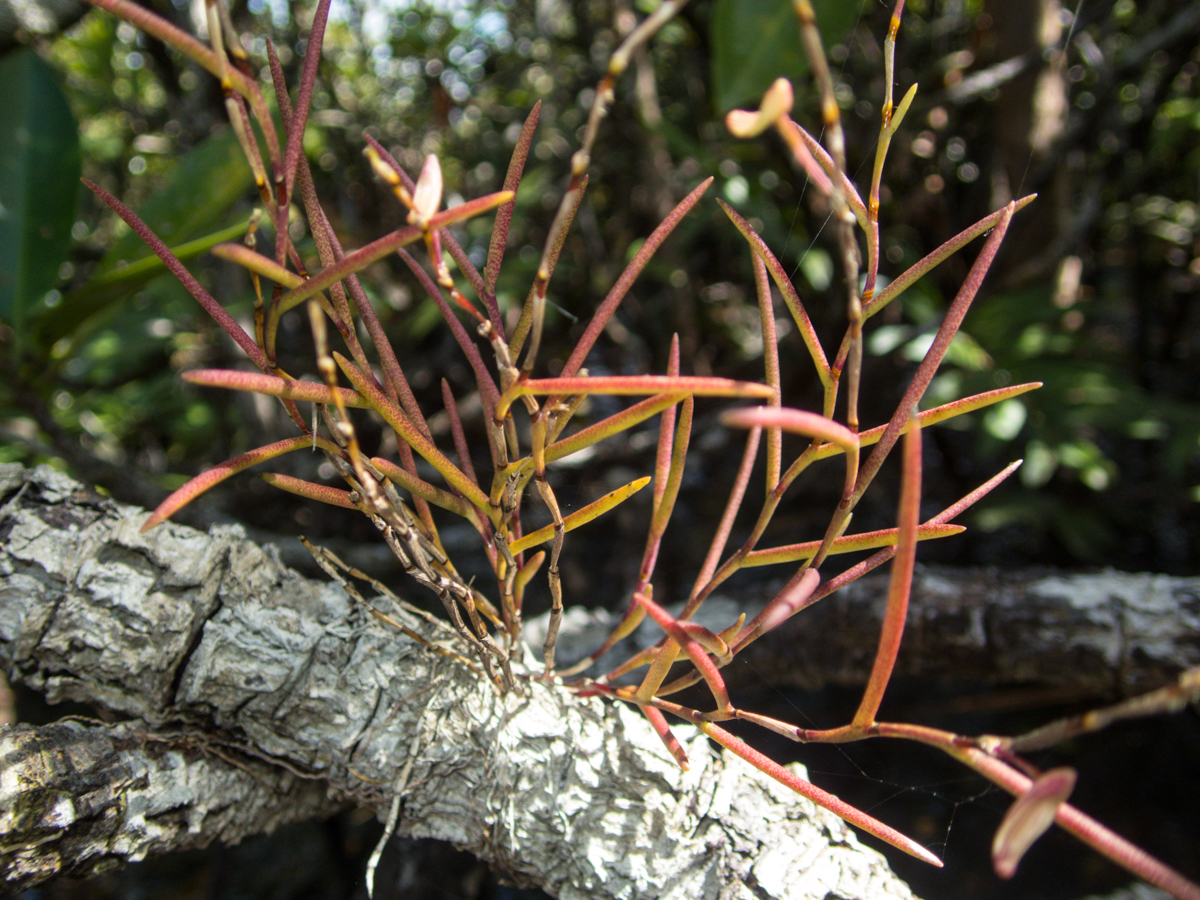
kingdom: Plantae
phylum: Tracheophyta
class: Liliopsida
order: Asparagales
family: Orchidaceae
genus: Dendrobium
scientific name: Dendrobium acerosum
